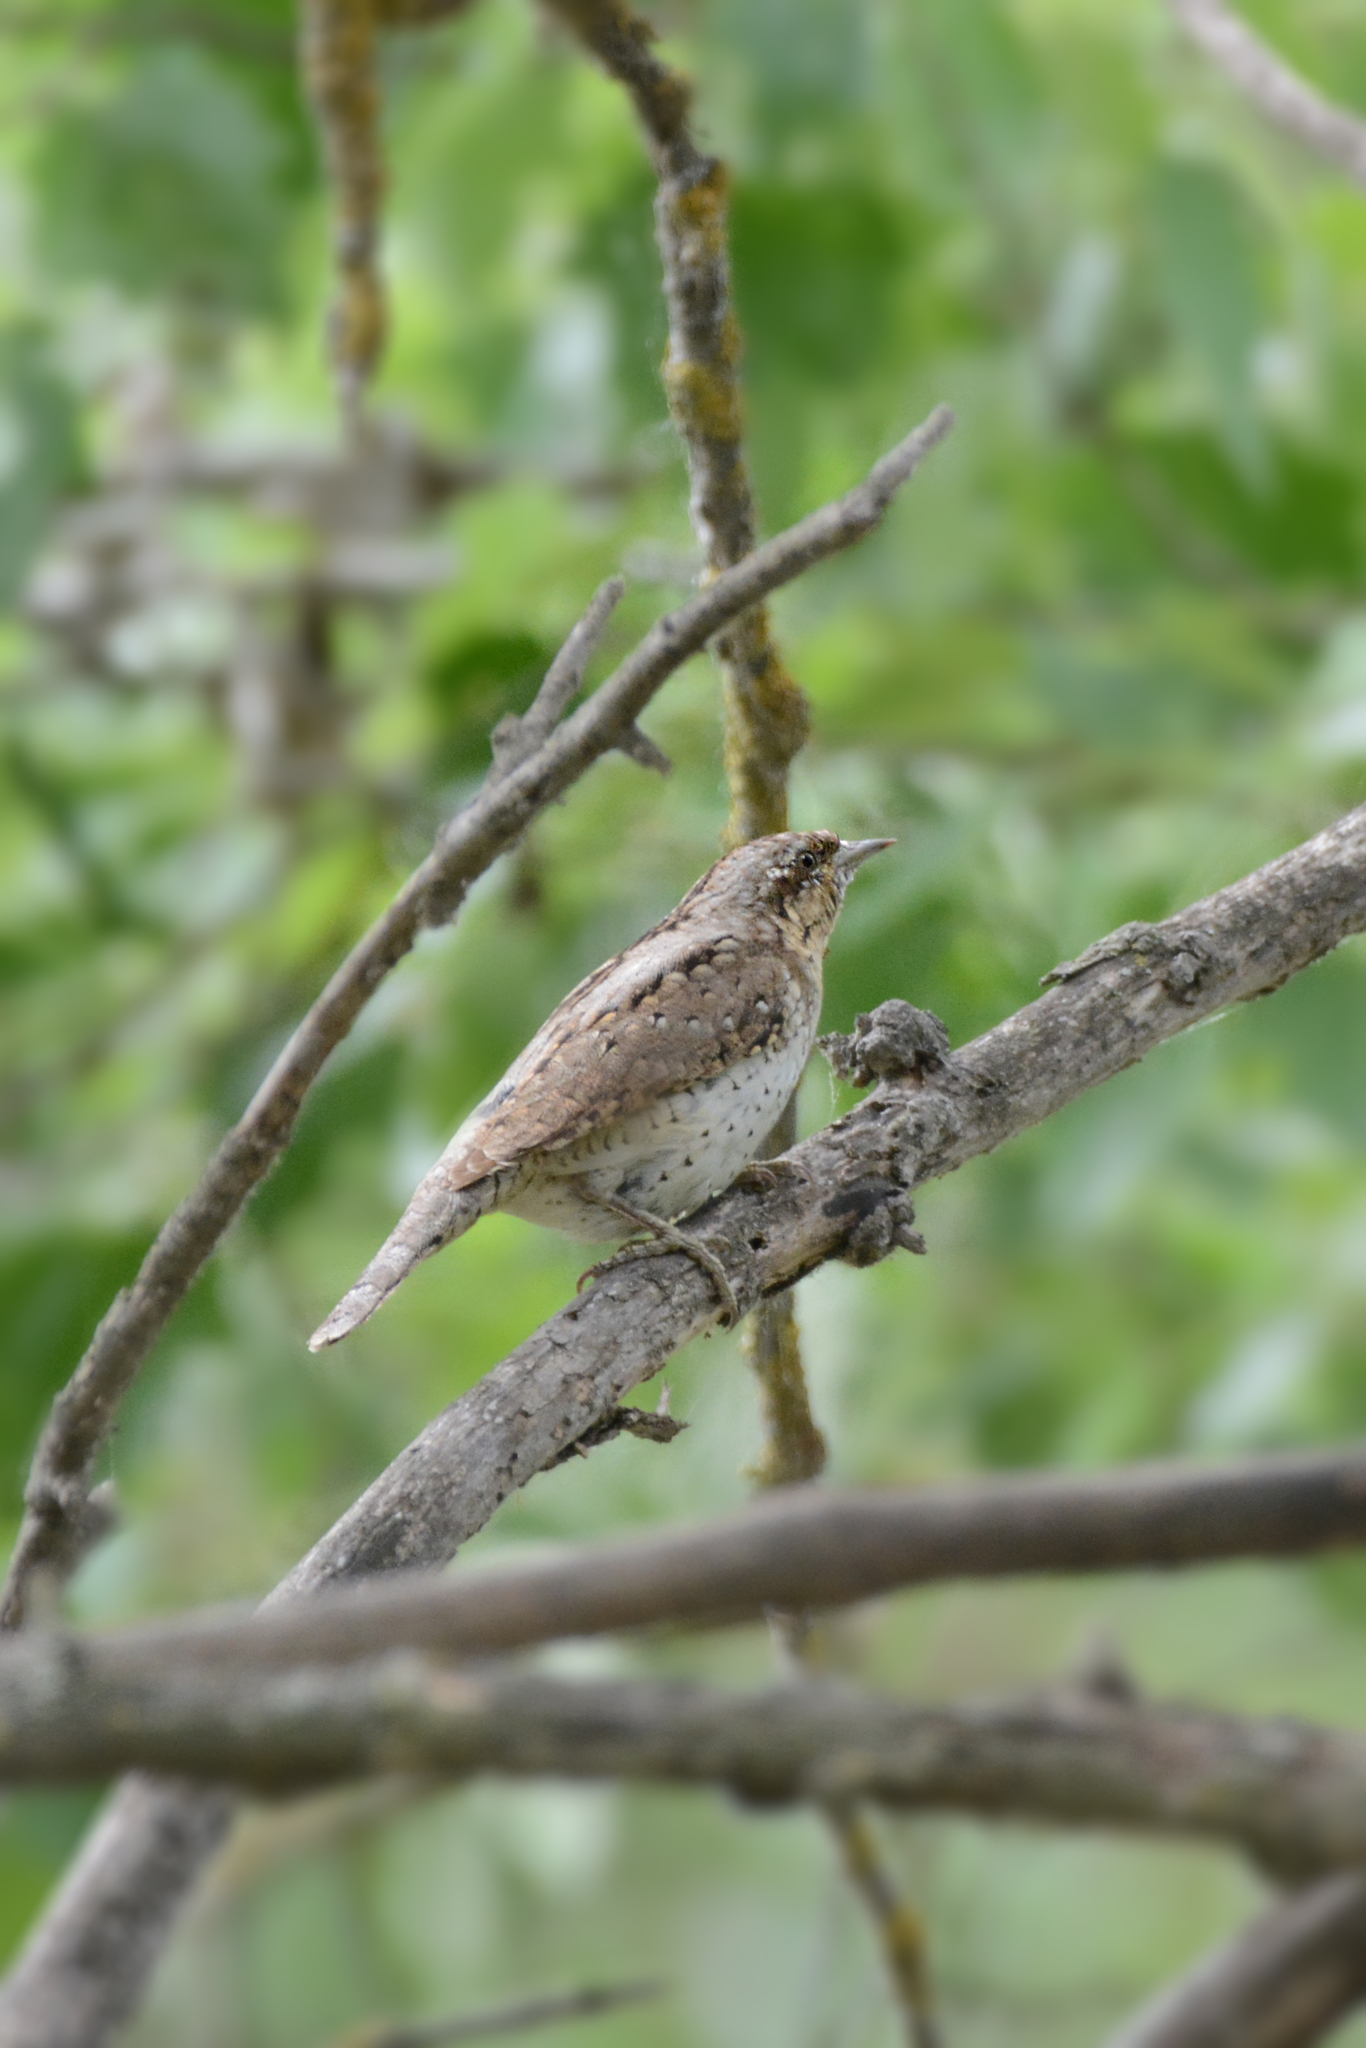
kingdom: Animalia
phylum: Chordata
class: Aves
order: Piciformes
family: Picidae
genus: Jynx
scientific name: Jynx torquilla
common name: Eurasian wryneck
